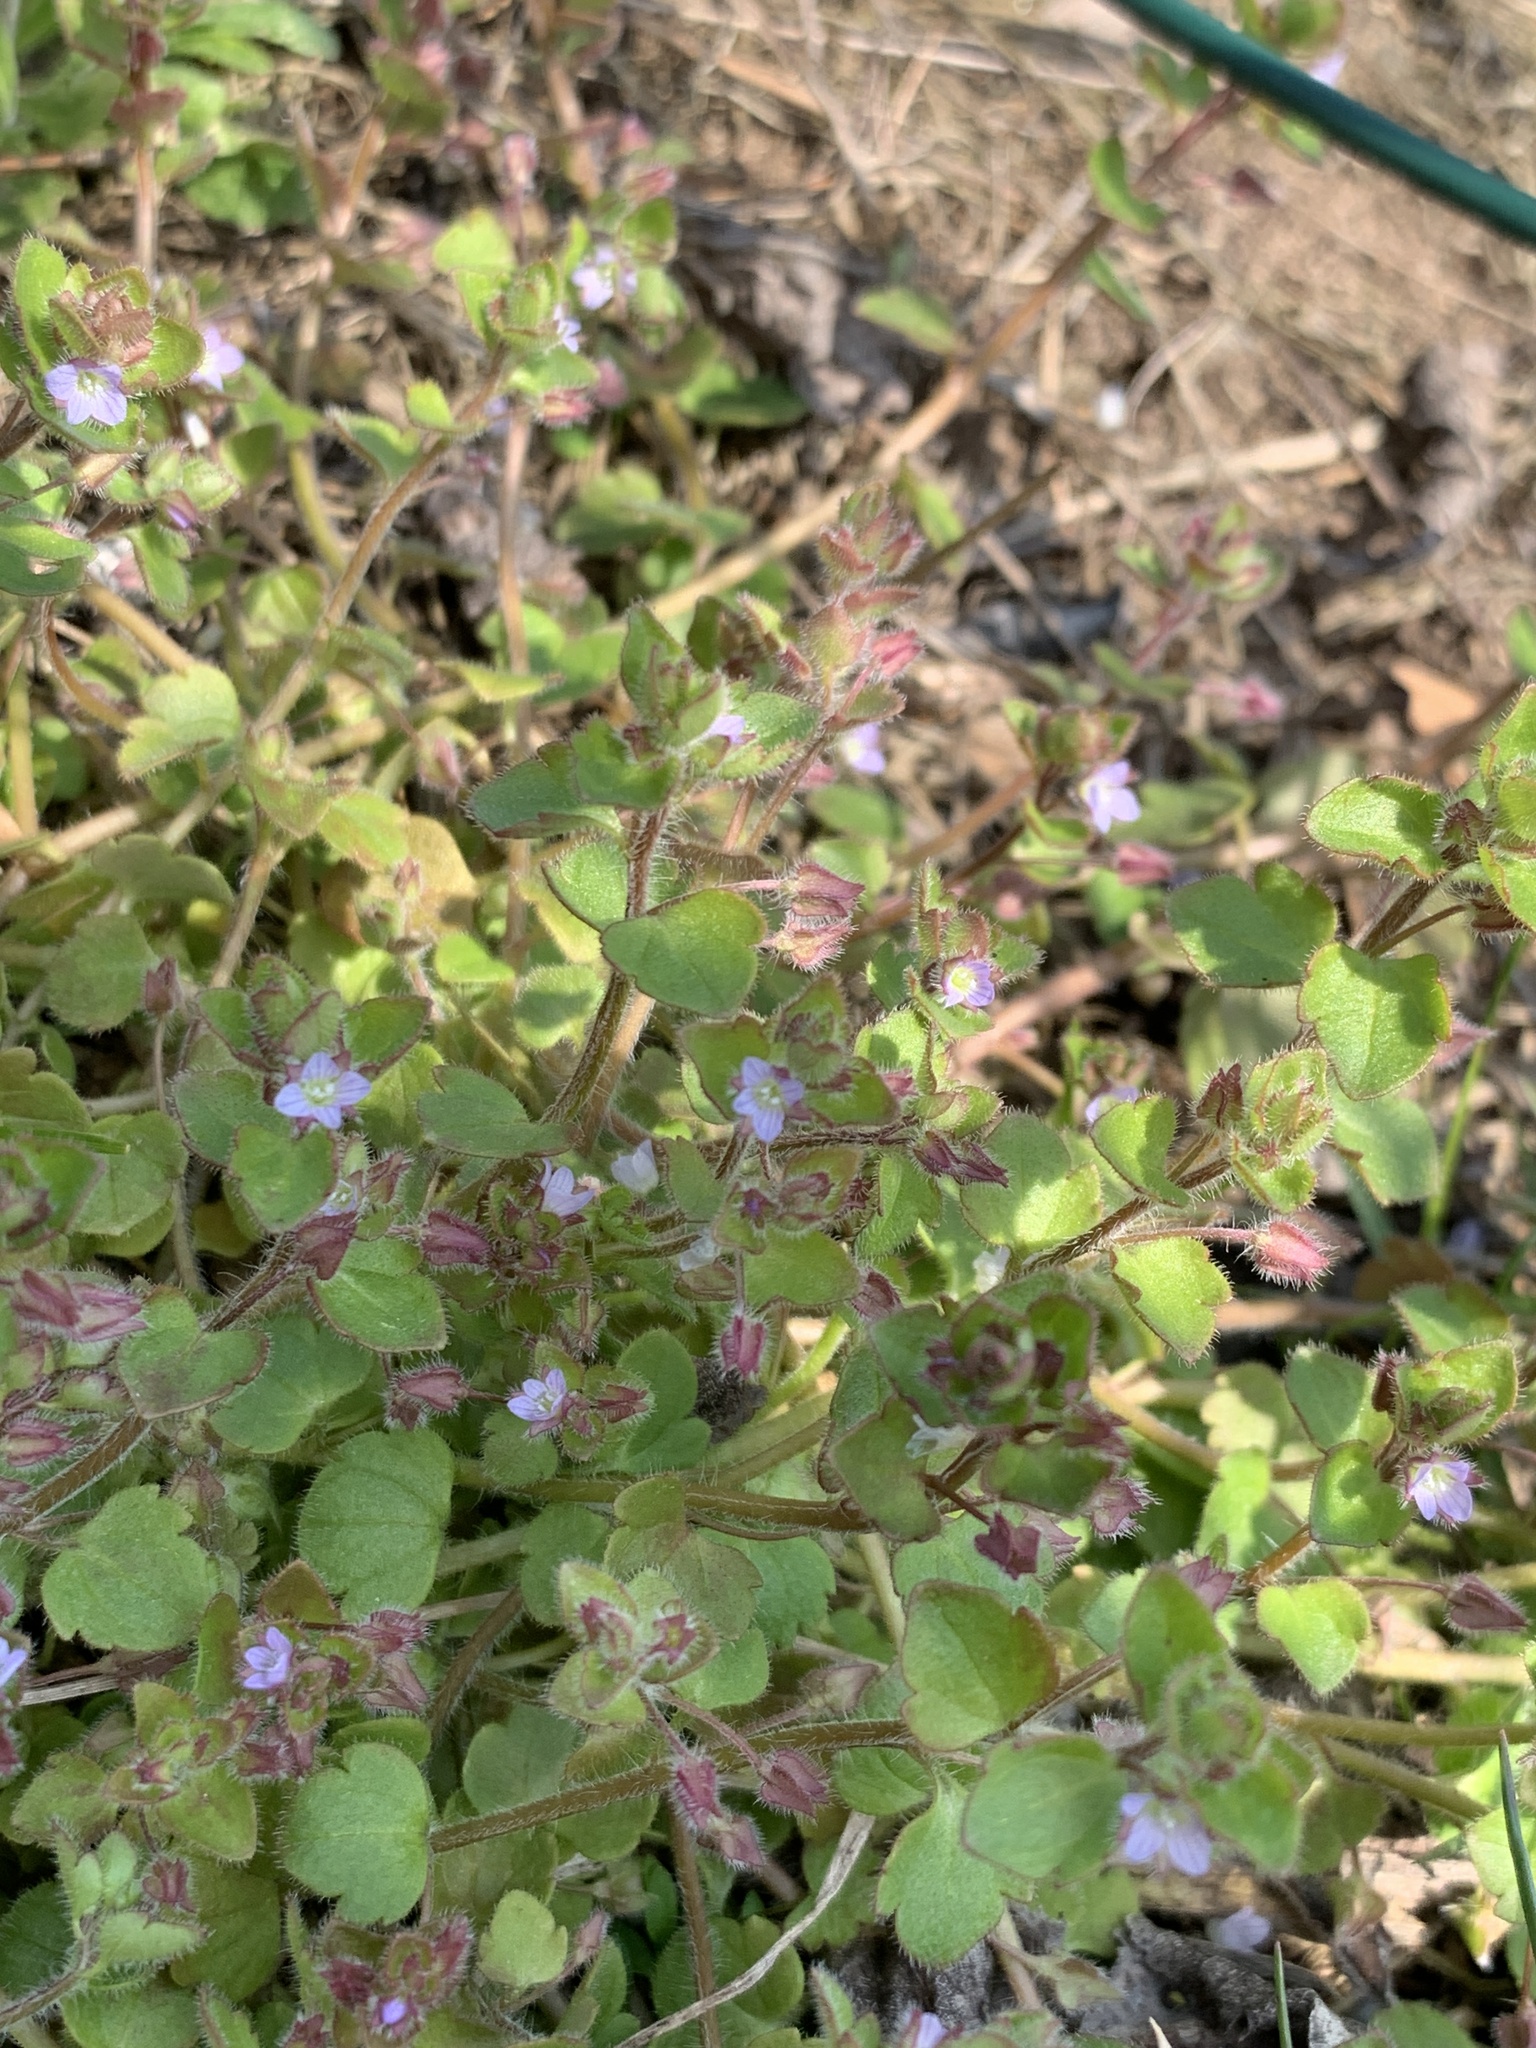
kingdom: Plantae
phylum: Tracheophyta
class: Magnoliopsida
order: Lamiales
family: Plantaginaceae
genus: Veronica
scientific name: Veronica sublobata
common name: False ivy-leaved speedwell
